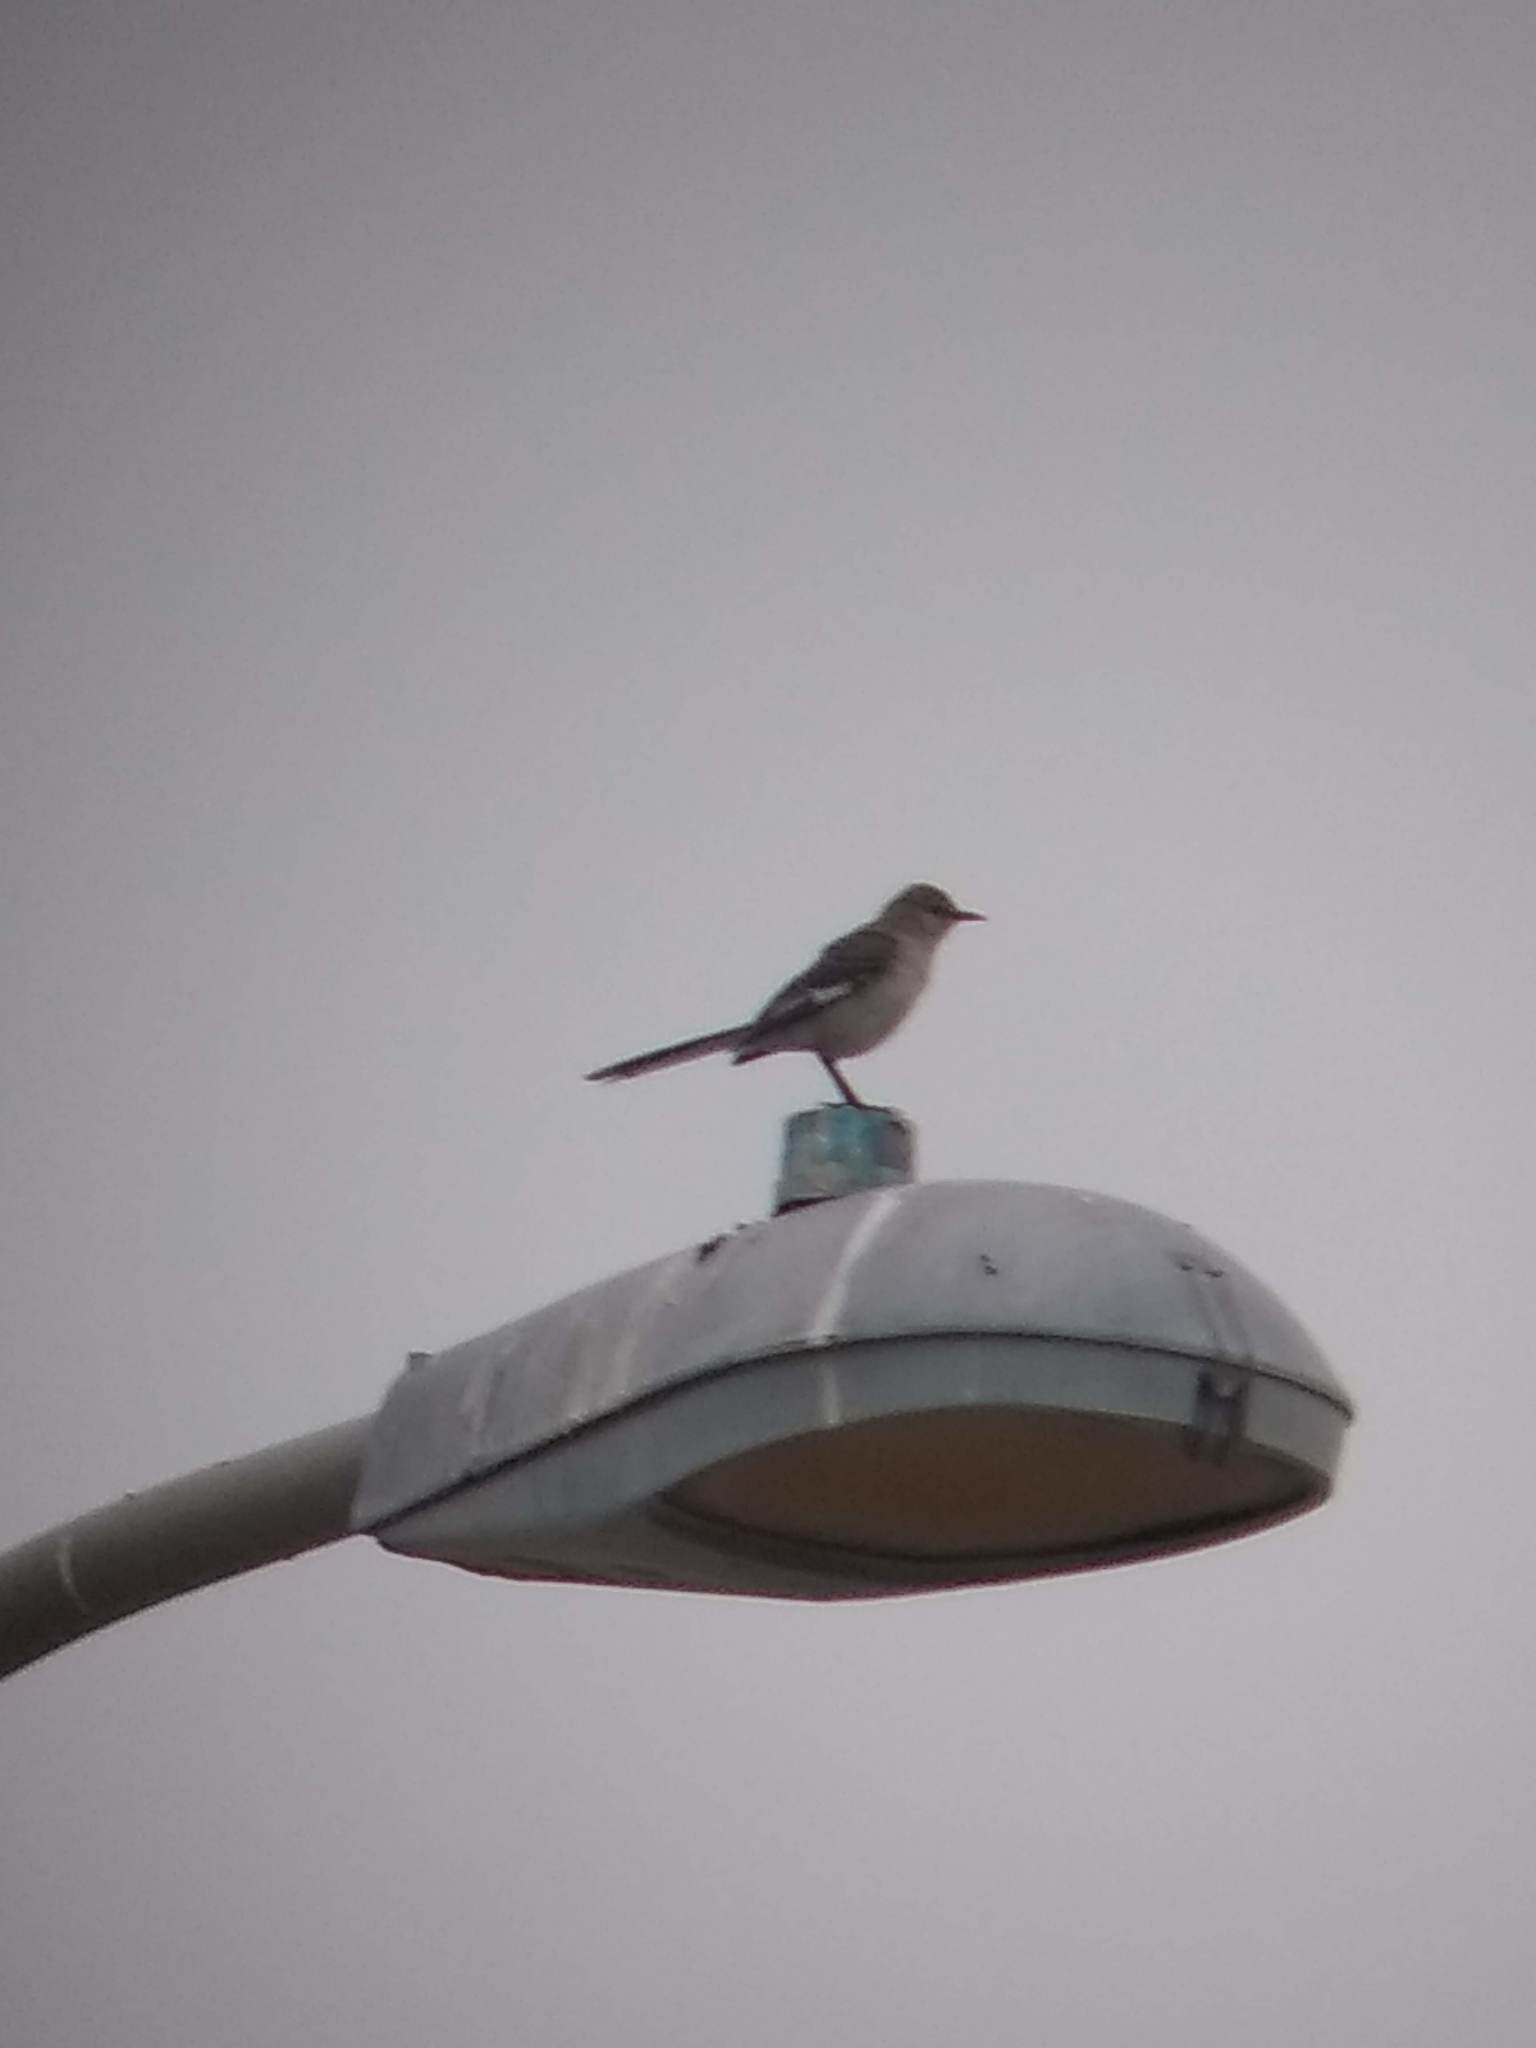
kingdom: Animalia
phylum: Chordata
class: Aves
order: Passeriformes
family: Mimidae
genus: Mimus
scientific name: Mimus polyglottos
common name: Northern mockingbird
